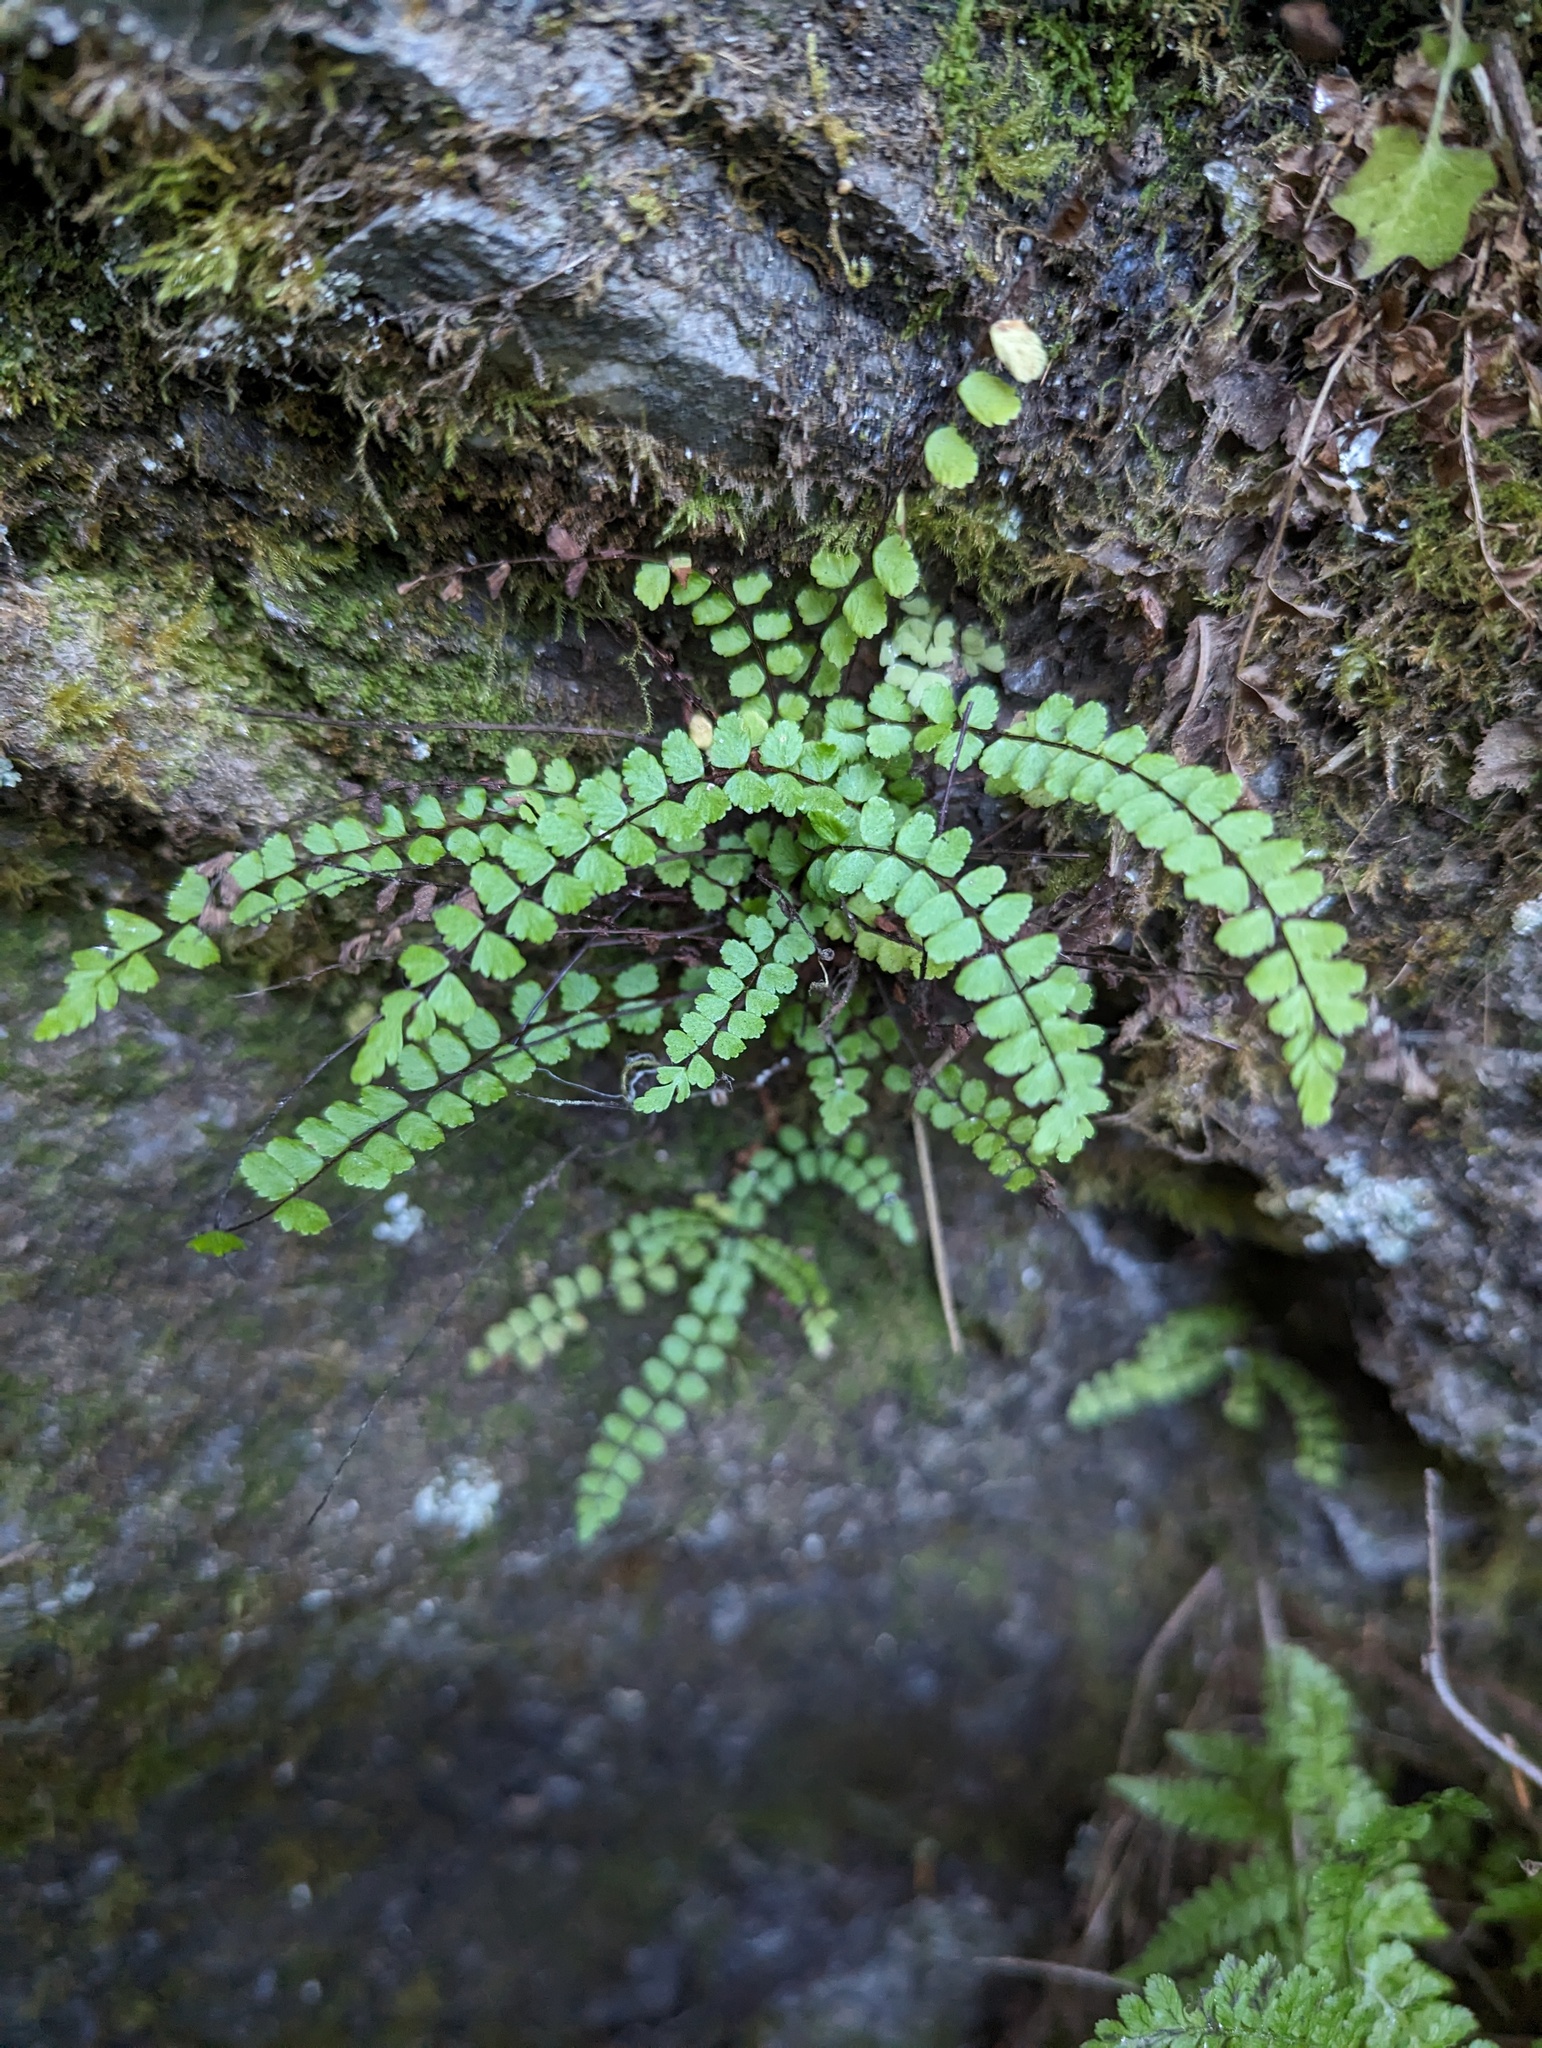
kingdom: Plantae
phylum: Tracheophyta
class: Polypodiopsida
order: Polypodiales
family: Aspleniaceae
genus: Asplenium
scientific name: Asplenium trichomanes
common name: Maidenhair spleenwort
